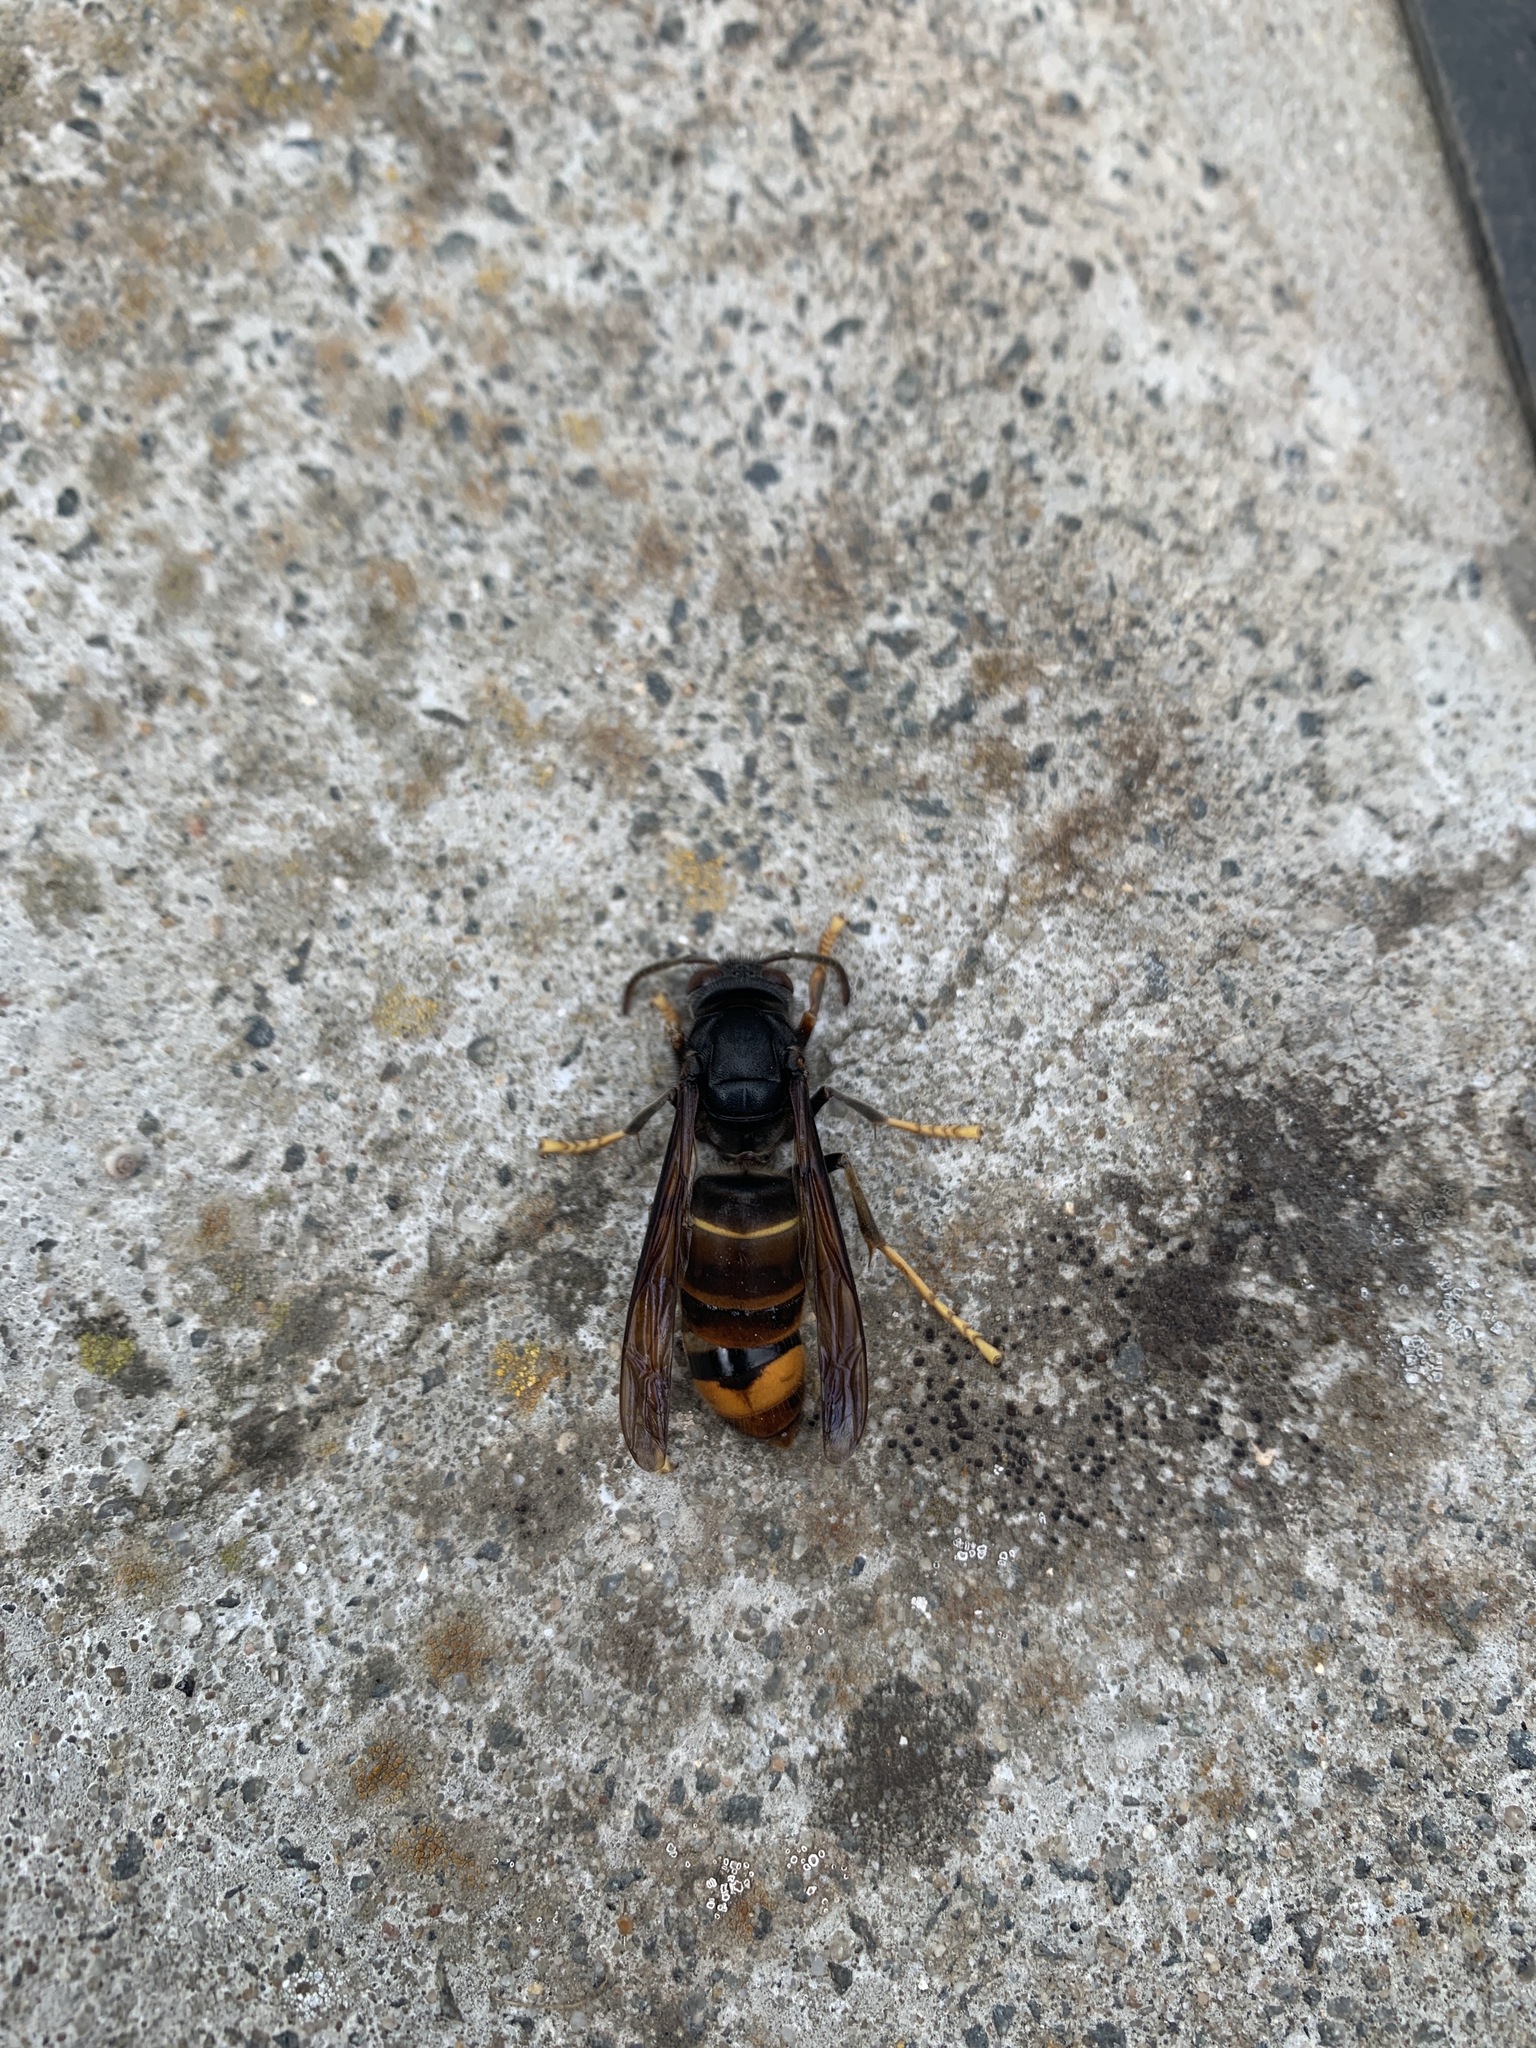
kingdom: Animalia
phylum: Arthropoda
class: Insecta
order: Hymenoptera
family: Vespidae
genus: Vespa
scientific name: Vespa velutina
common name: Asian hornet
